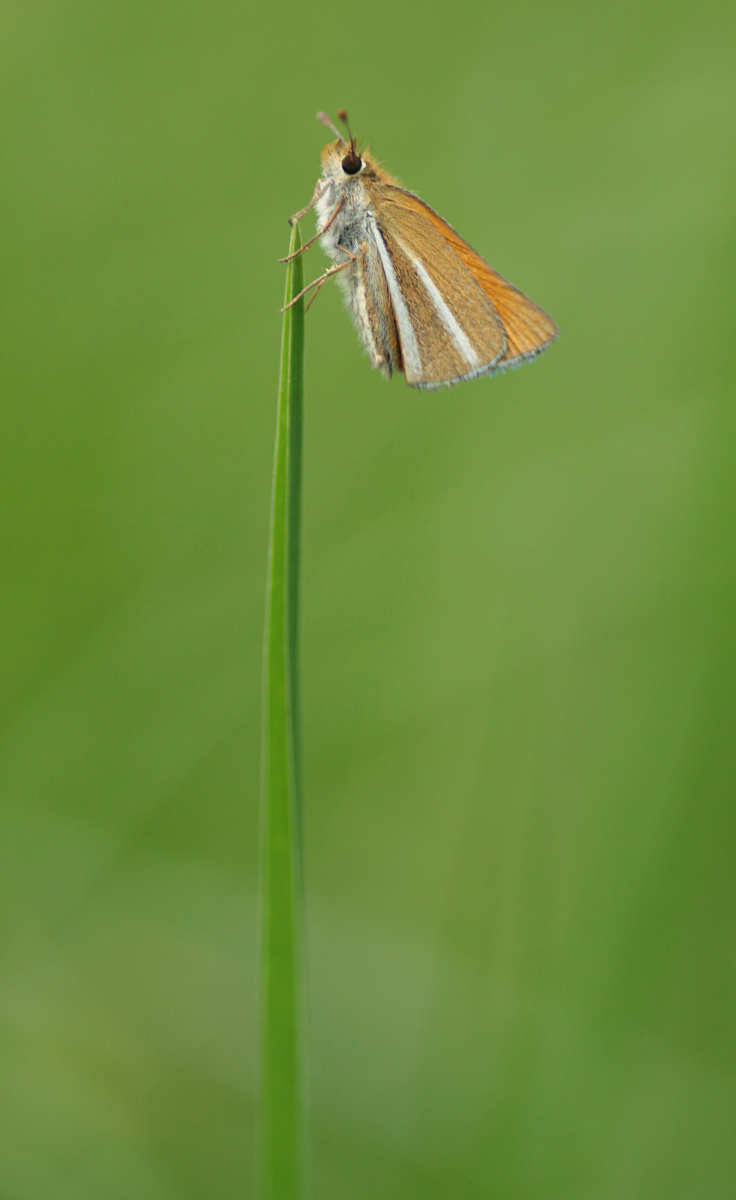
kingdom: Animalia
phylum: Arthropoda
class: Insecta
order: Lepidoptera
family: Hesperiidae
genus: Oarisma
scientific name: Oarisma boeta
